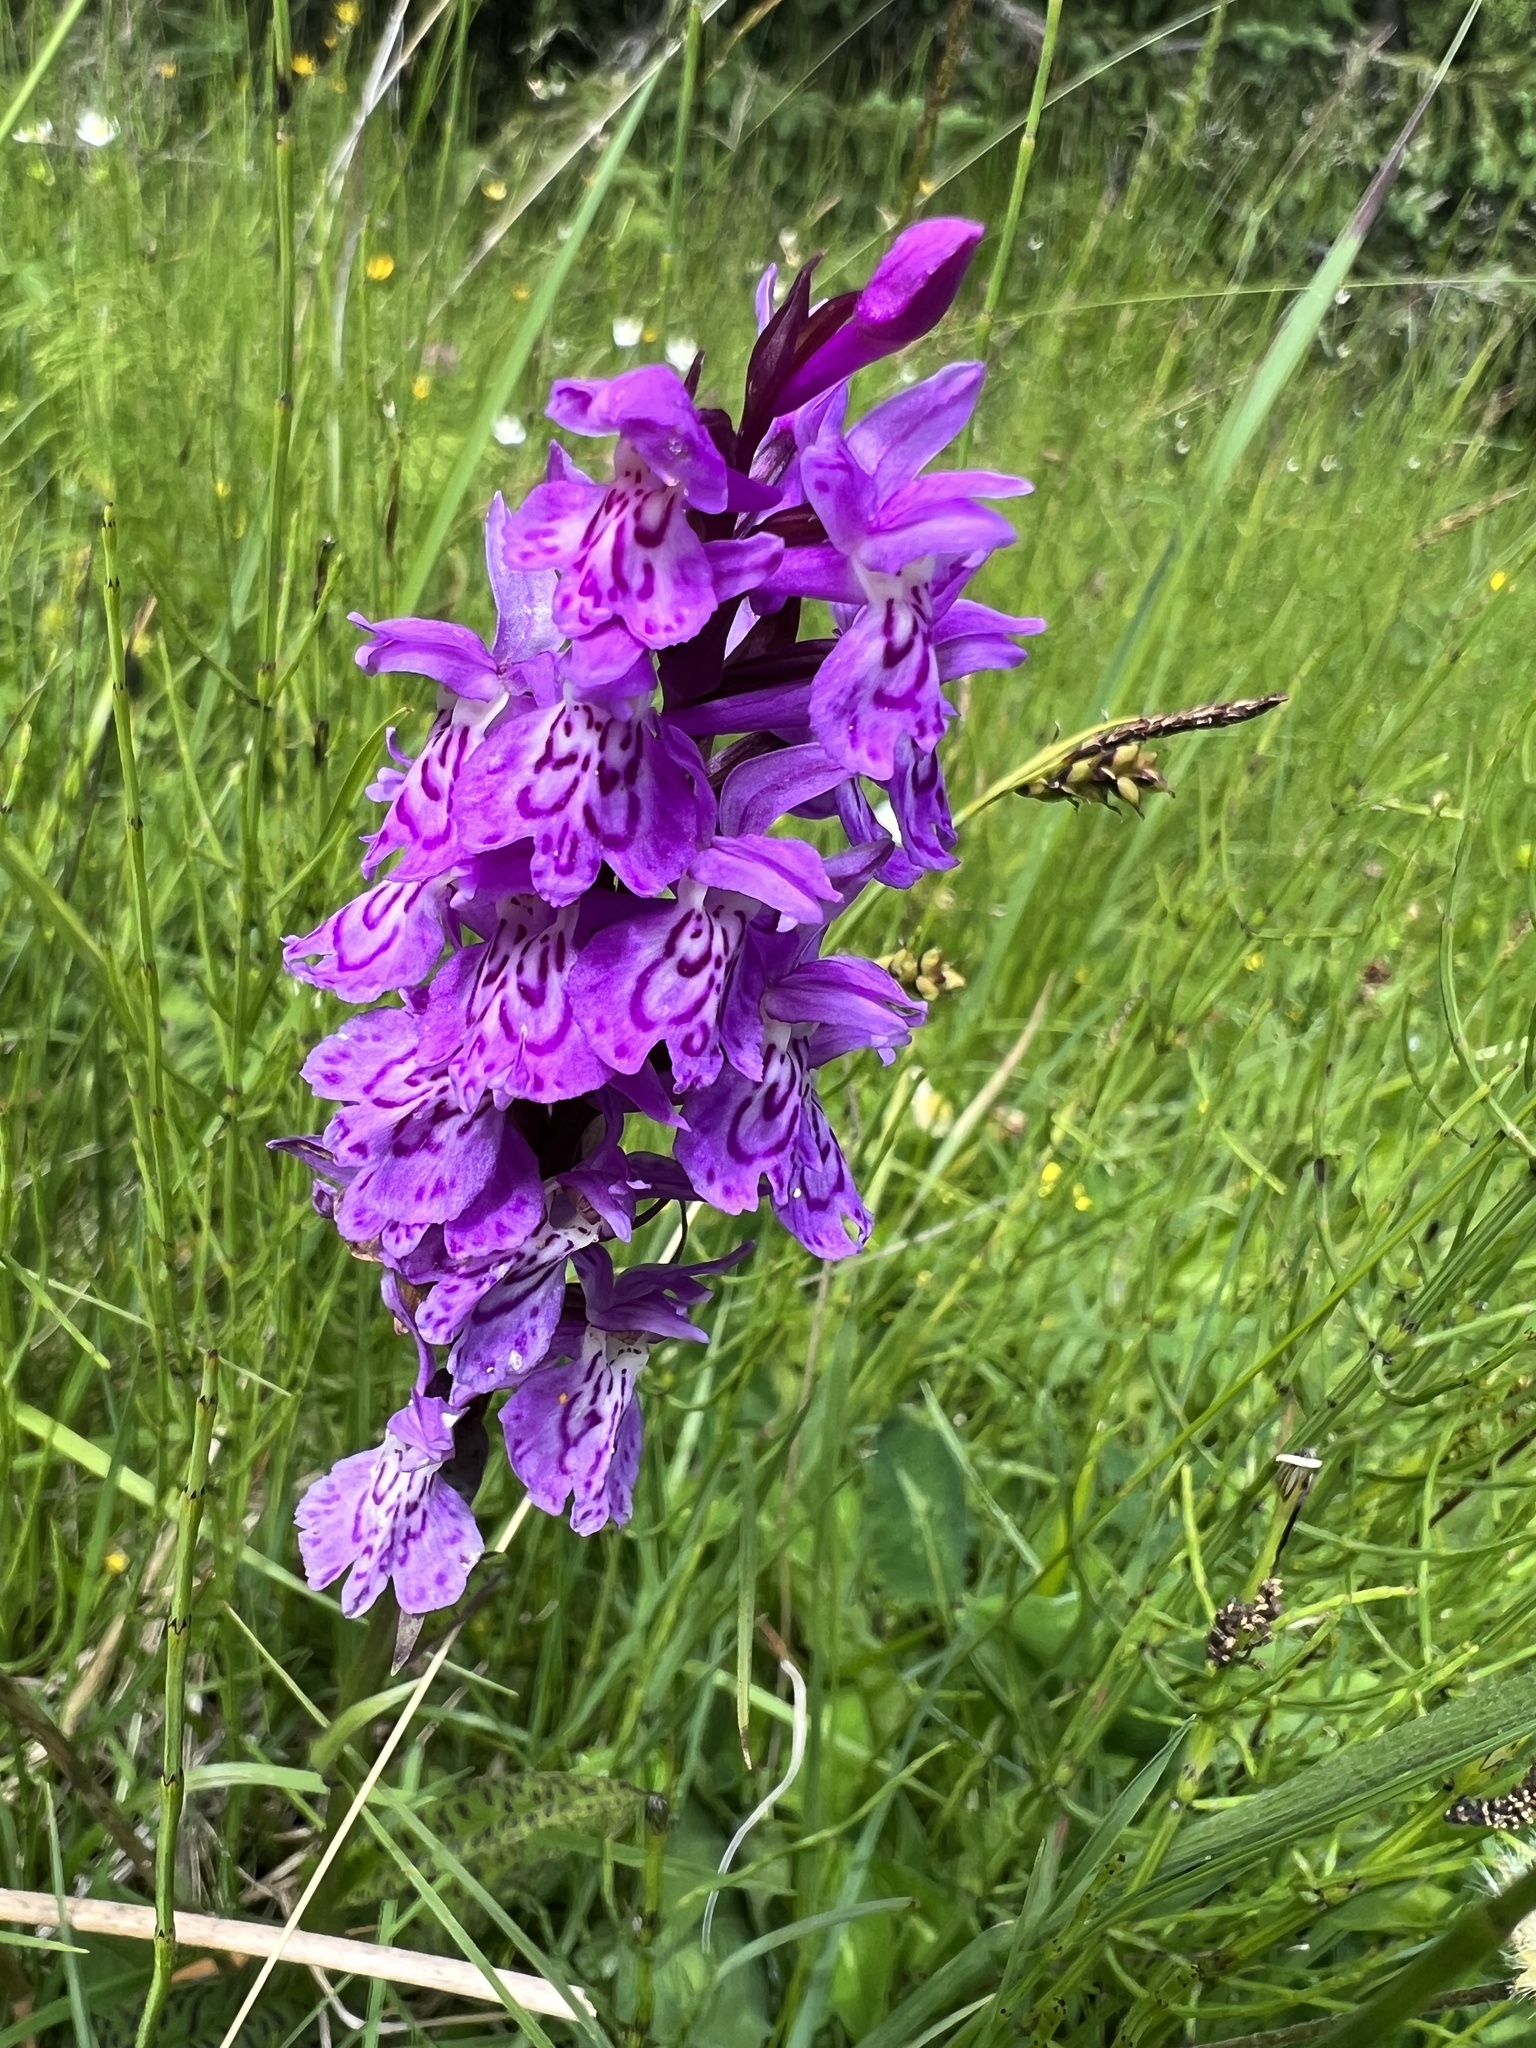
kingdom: Plantae
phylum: Tracheophyta
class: Liliopsida
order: Asparagales
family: Orchidaceae
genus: Dactylorhiza
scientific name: Dactylorhiza maculata
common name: Heath spotted-orchid
